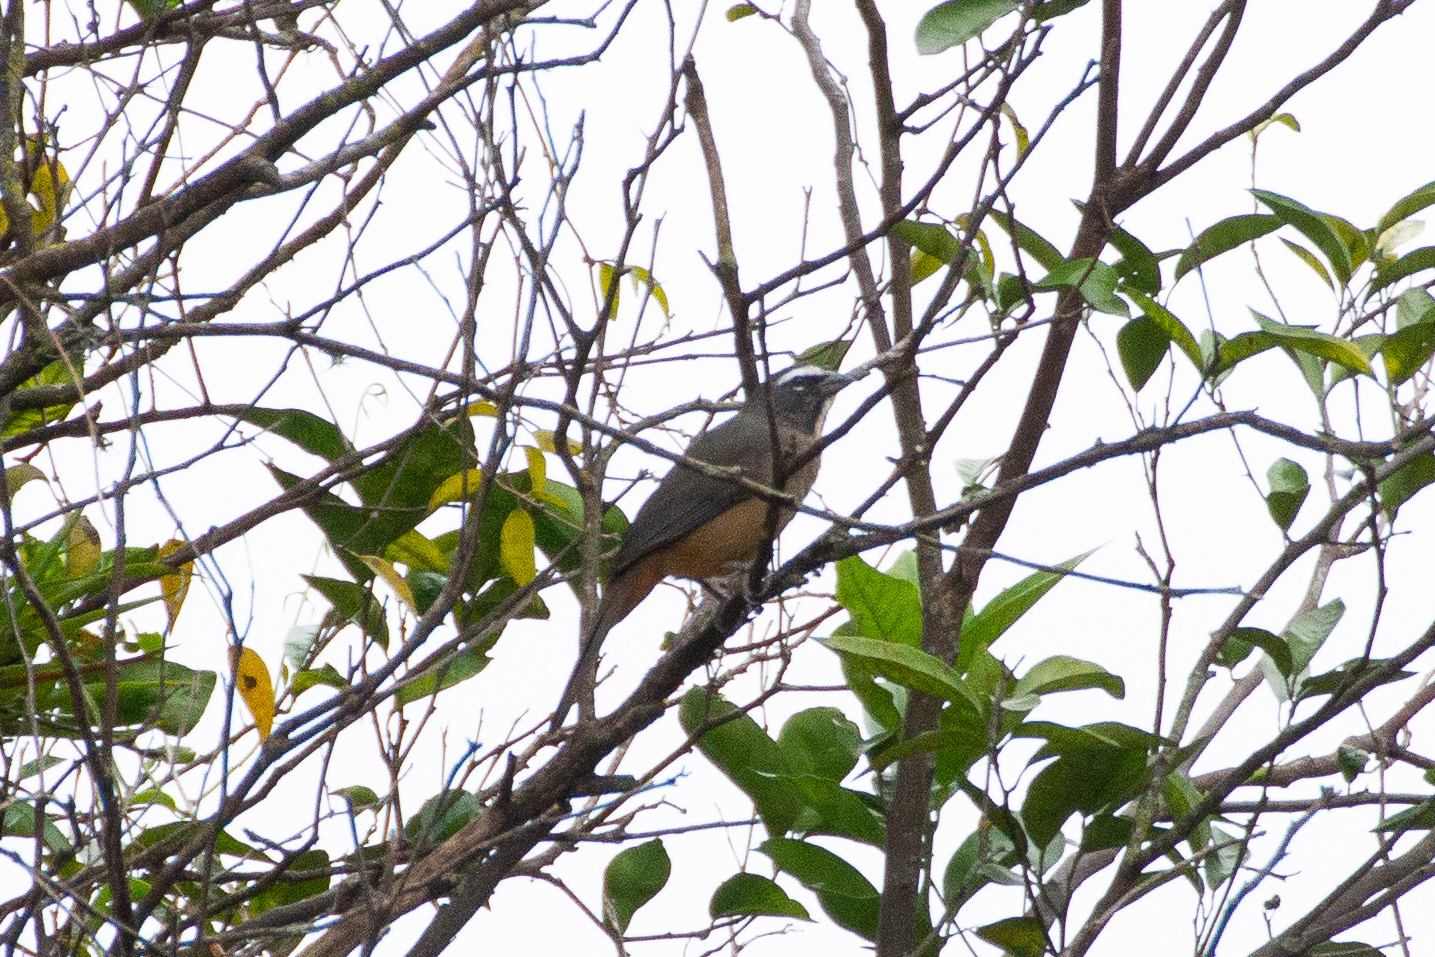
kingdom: Animalia
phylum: Chordata
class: Aves
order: Passeriformes
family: Thraupidae
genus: Saltator
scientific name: Saltator grandis
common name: Cinnamon-bellied saltator
